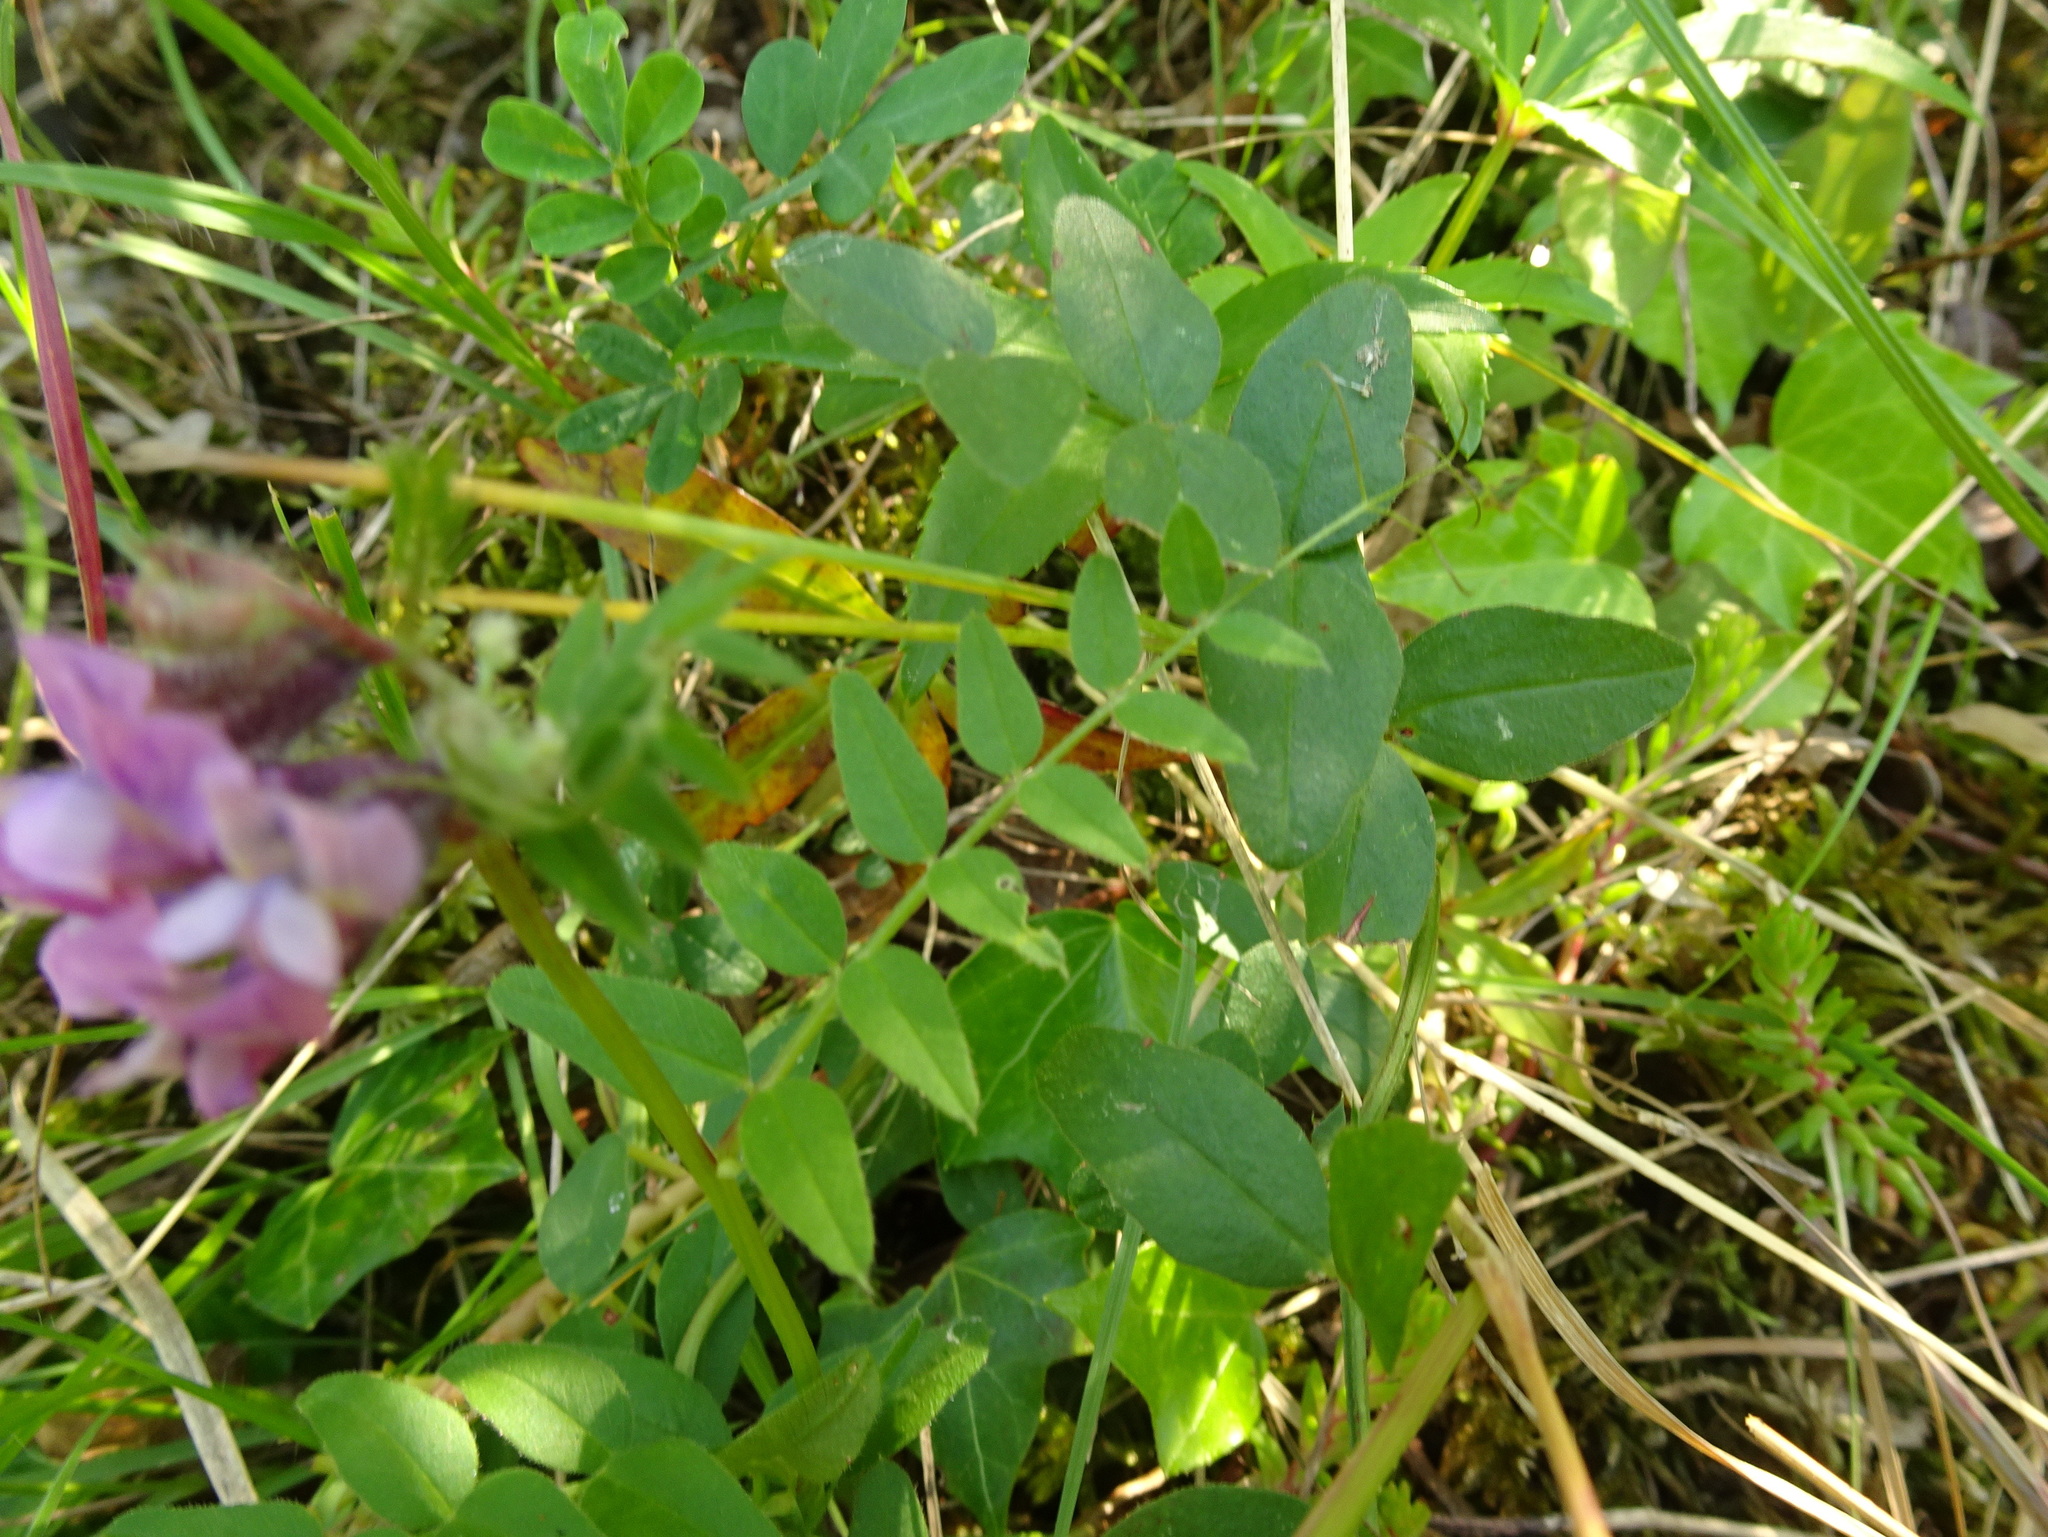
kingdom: Plantae
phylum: Tracheophyta
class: Magnoliopsida
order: Fabales
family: Fabaceae
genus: Vicia
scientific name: Vicia sepium
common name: Bush vetch
